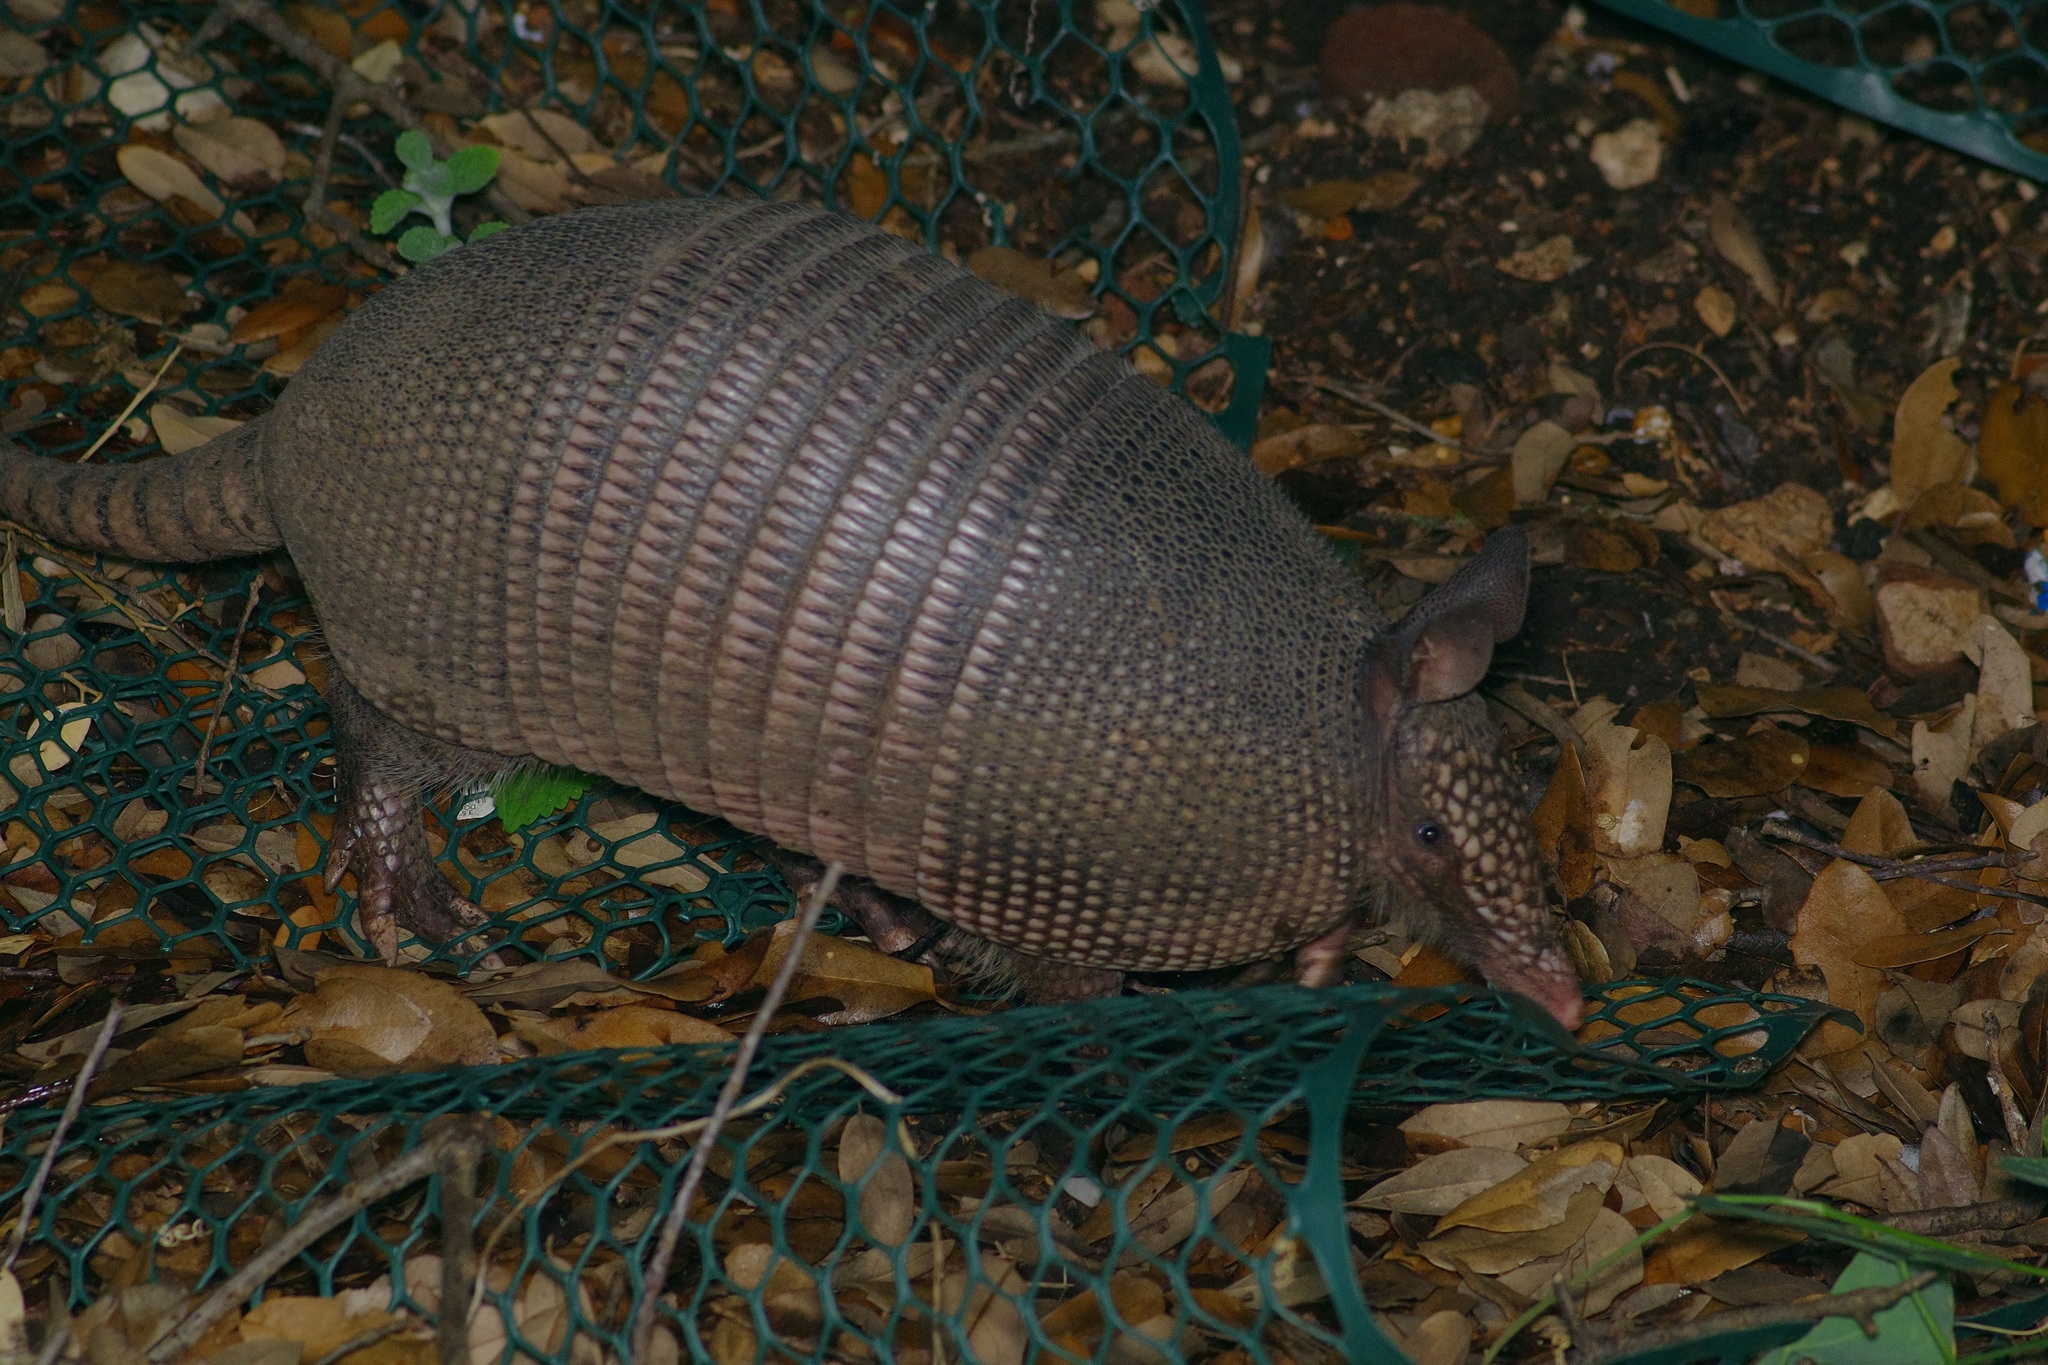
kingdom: Animalia
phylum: Chordata
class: Mammalia
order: Cingulata
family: Dasypodidae
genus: Dasypus
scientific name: Dasypus novemcinctus
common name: Nine-banded armadillo
